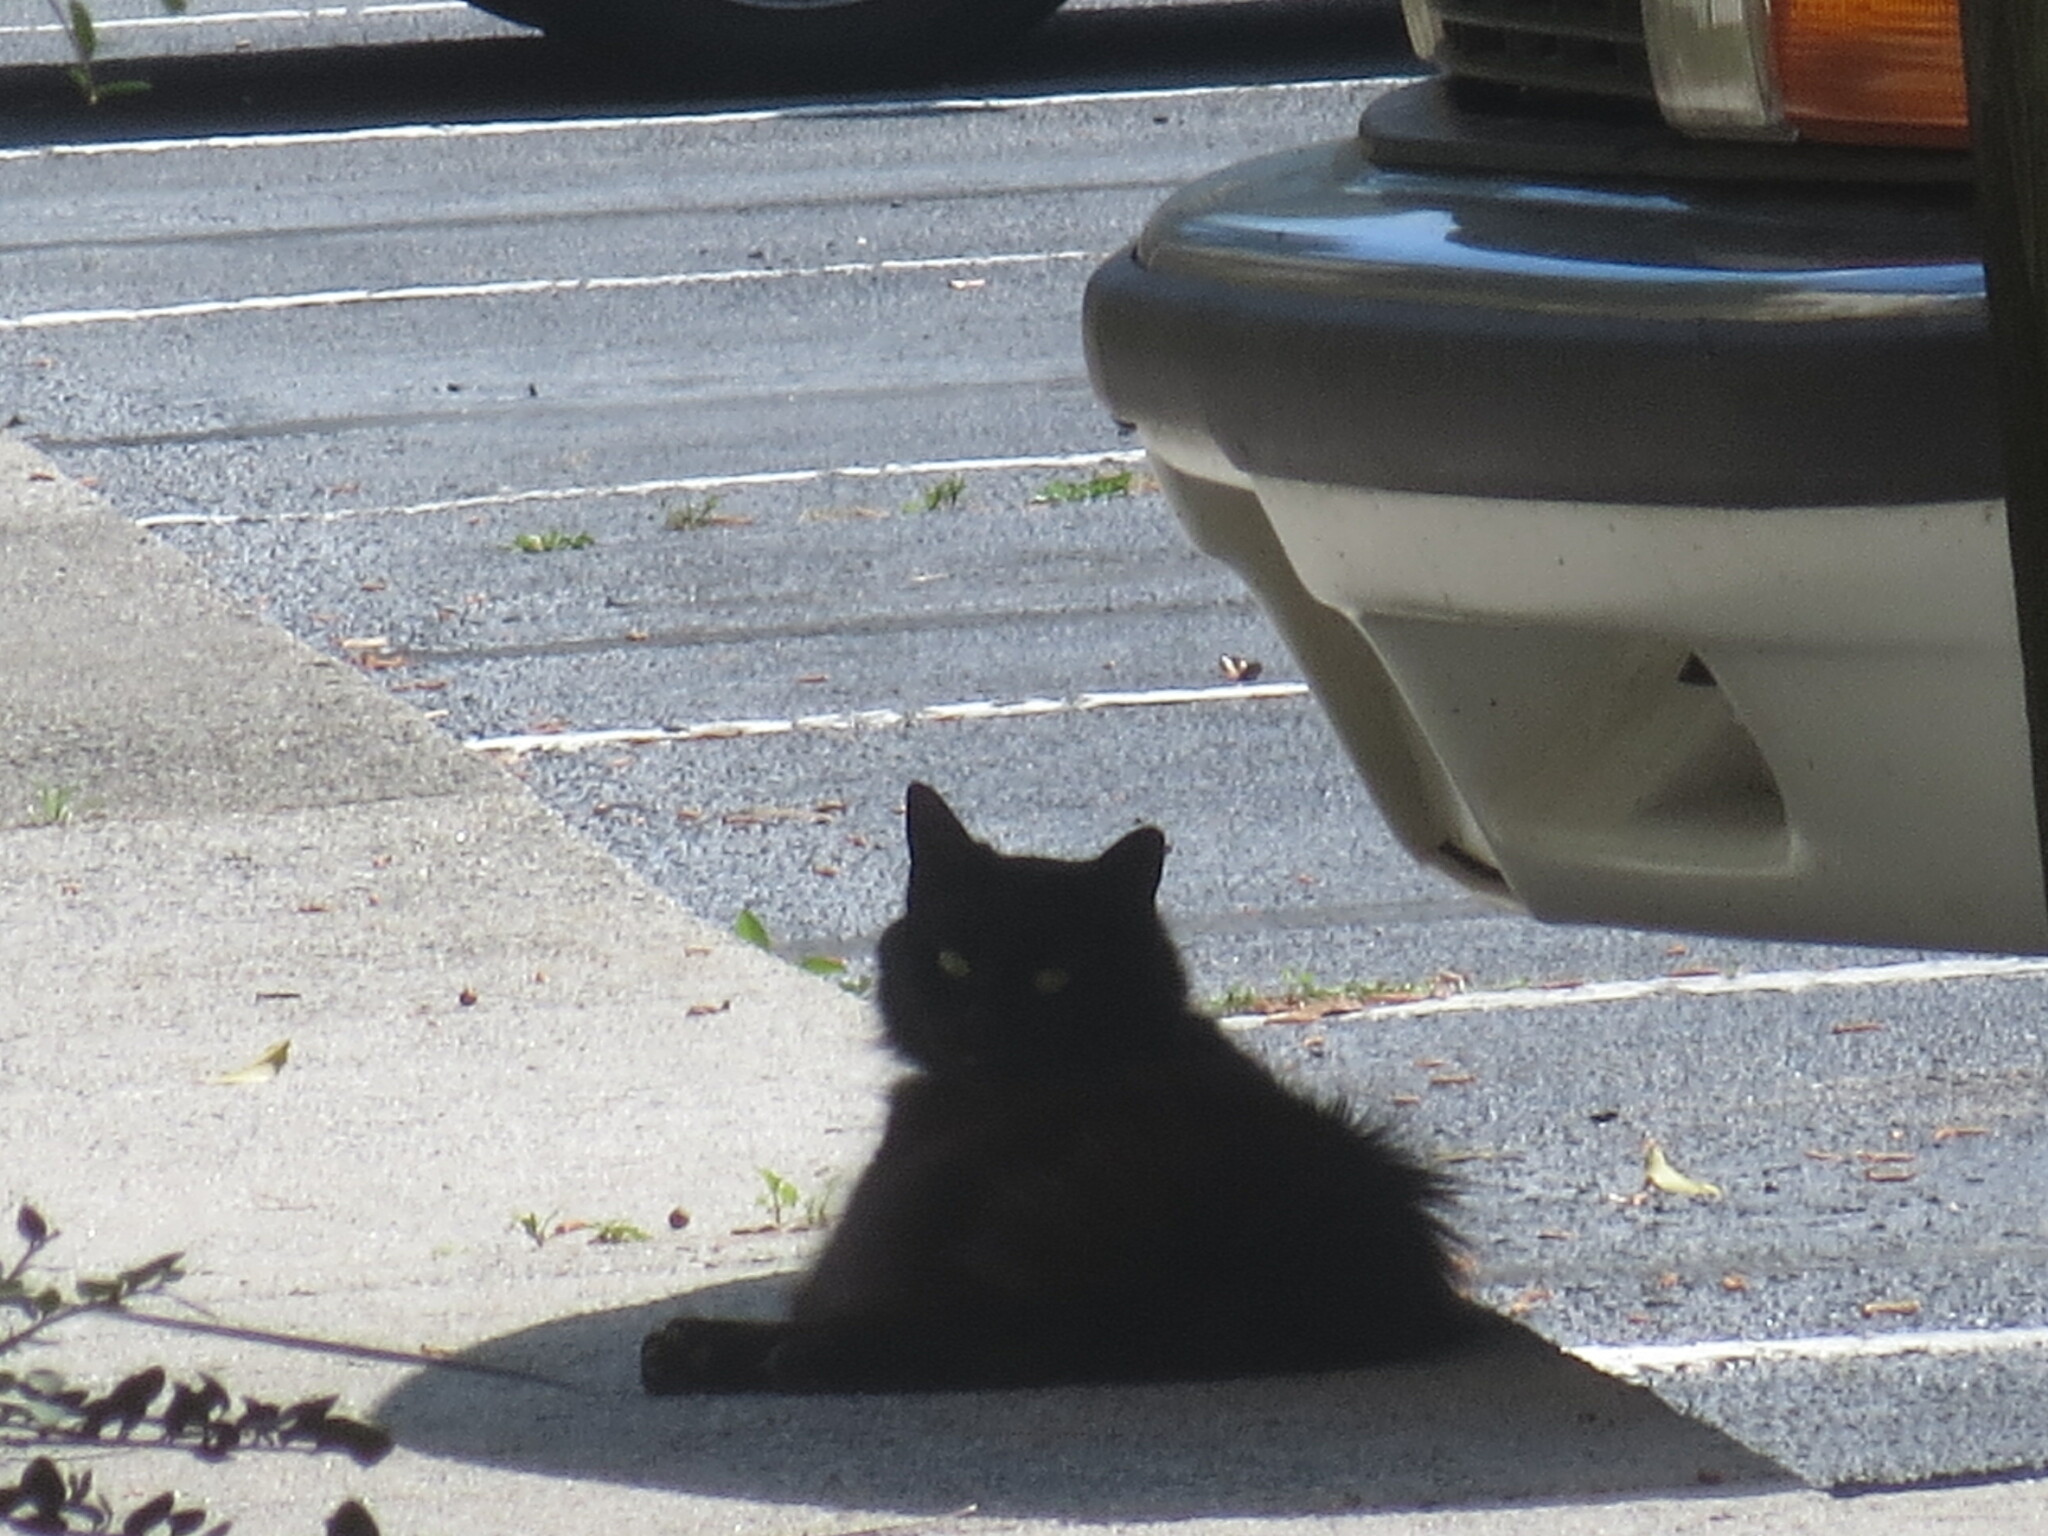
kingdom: Animalia
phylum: Chordata
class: Mammalia
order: Carnivora
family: Felidae
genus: Felis
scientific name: Felis catus
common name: Domestic cat
